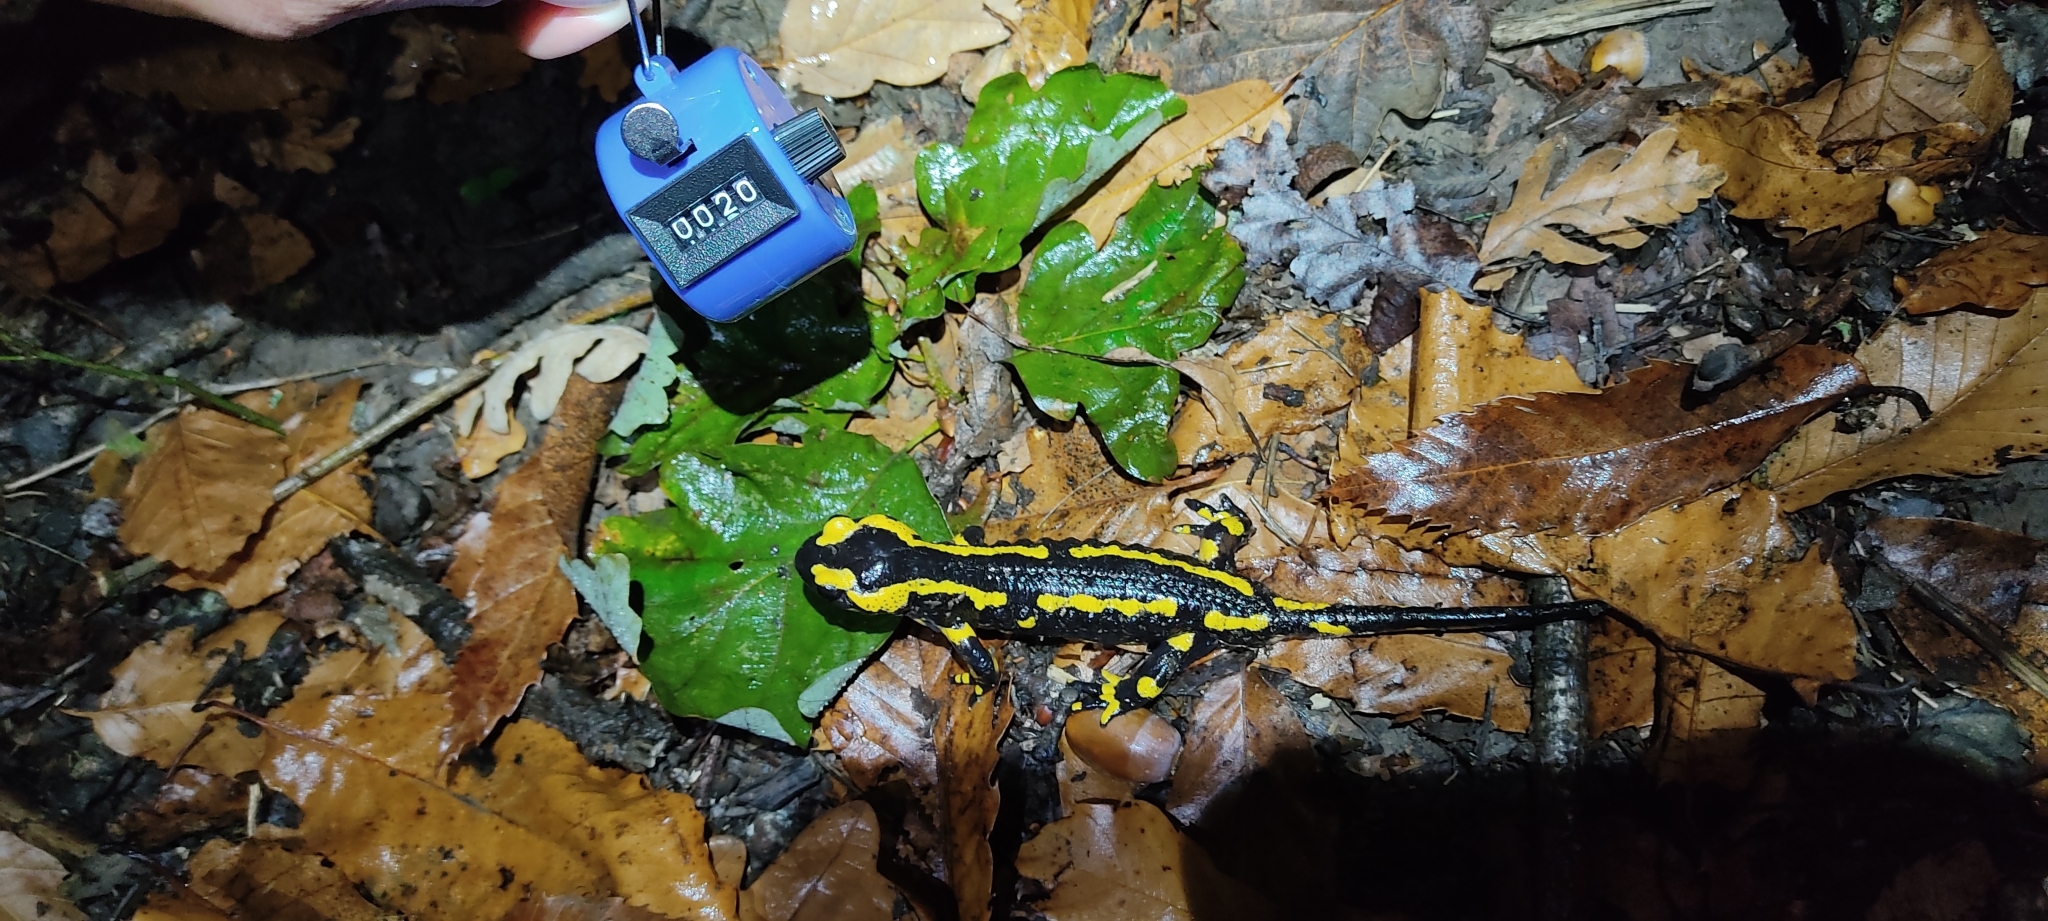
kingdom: Animalia
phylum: Chordata
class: Amphibia
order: Caudata
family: Salamandridae
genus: Salamandra
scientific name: Salamandra salamandra
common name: Fire salamander
